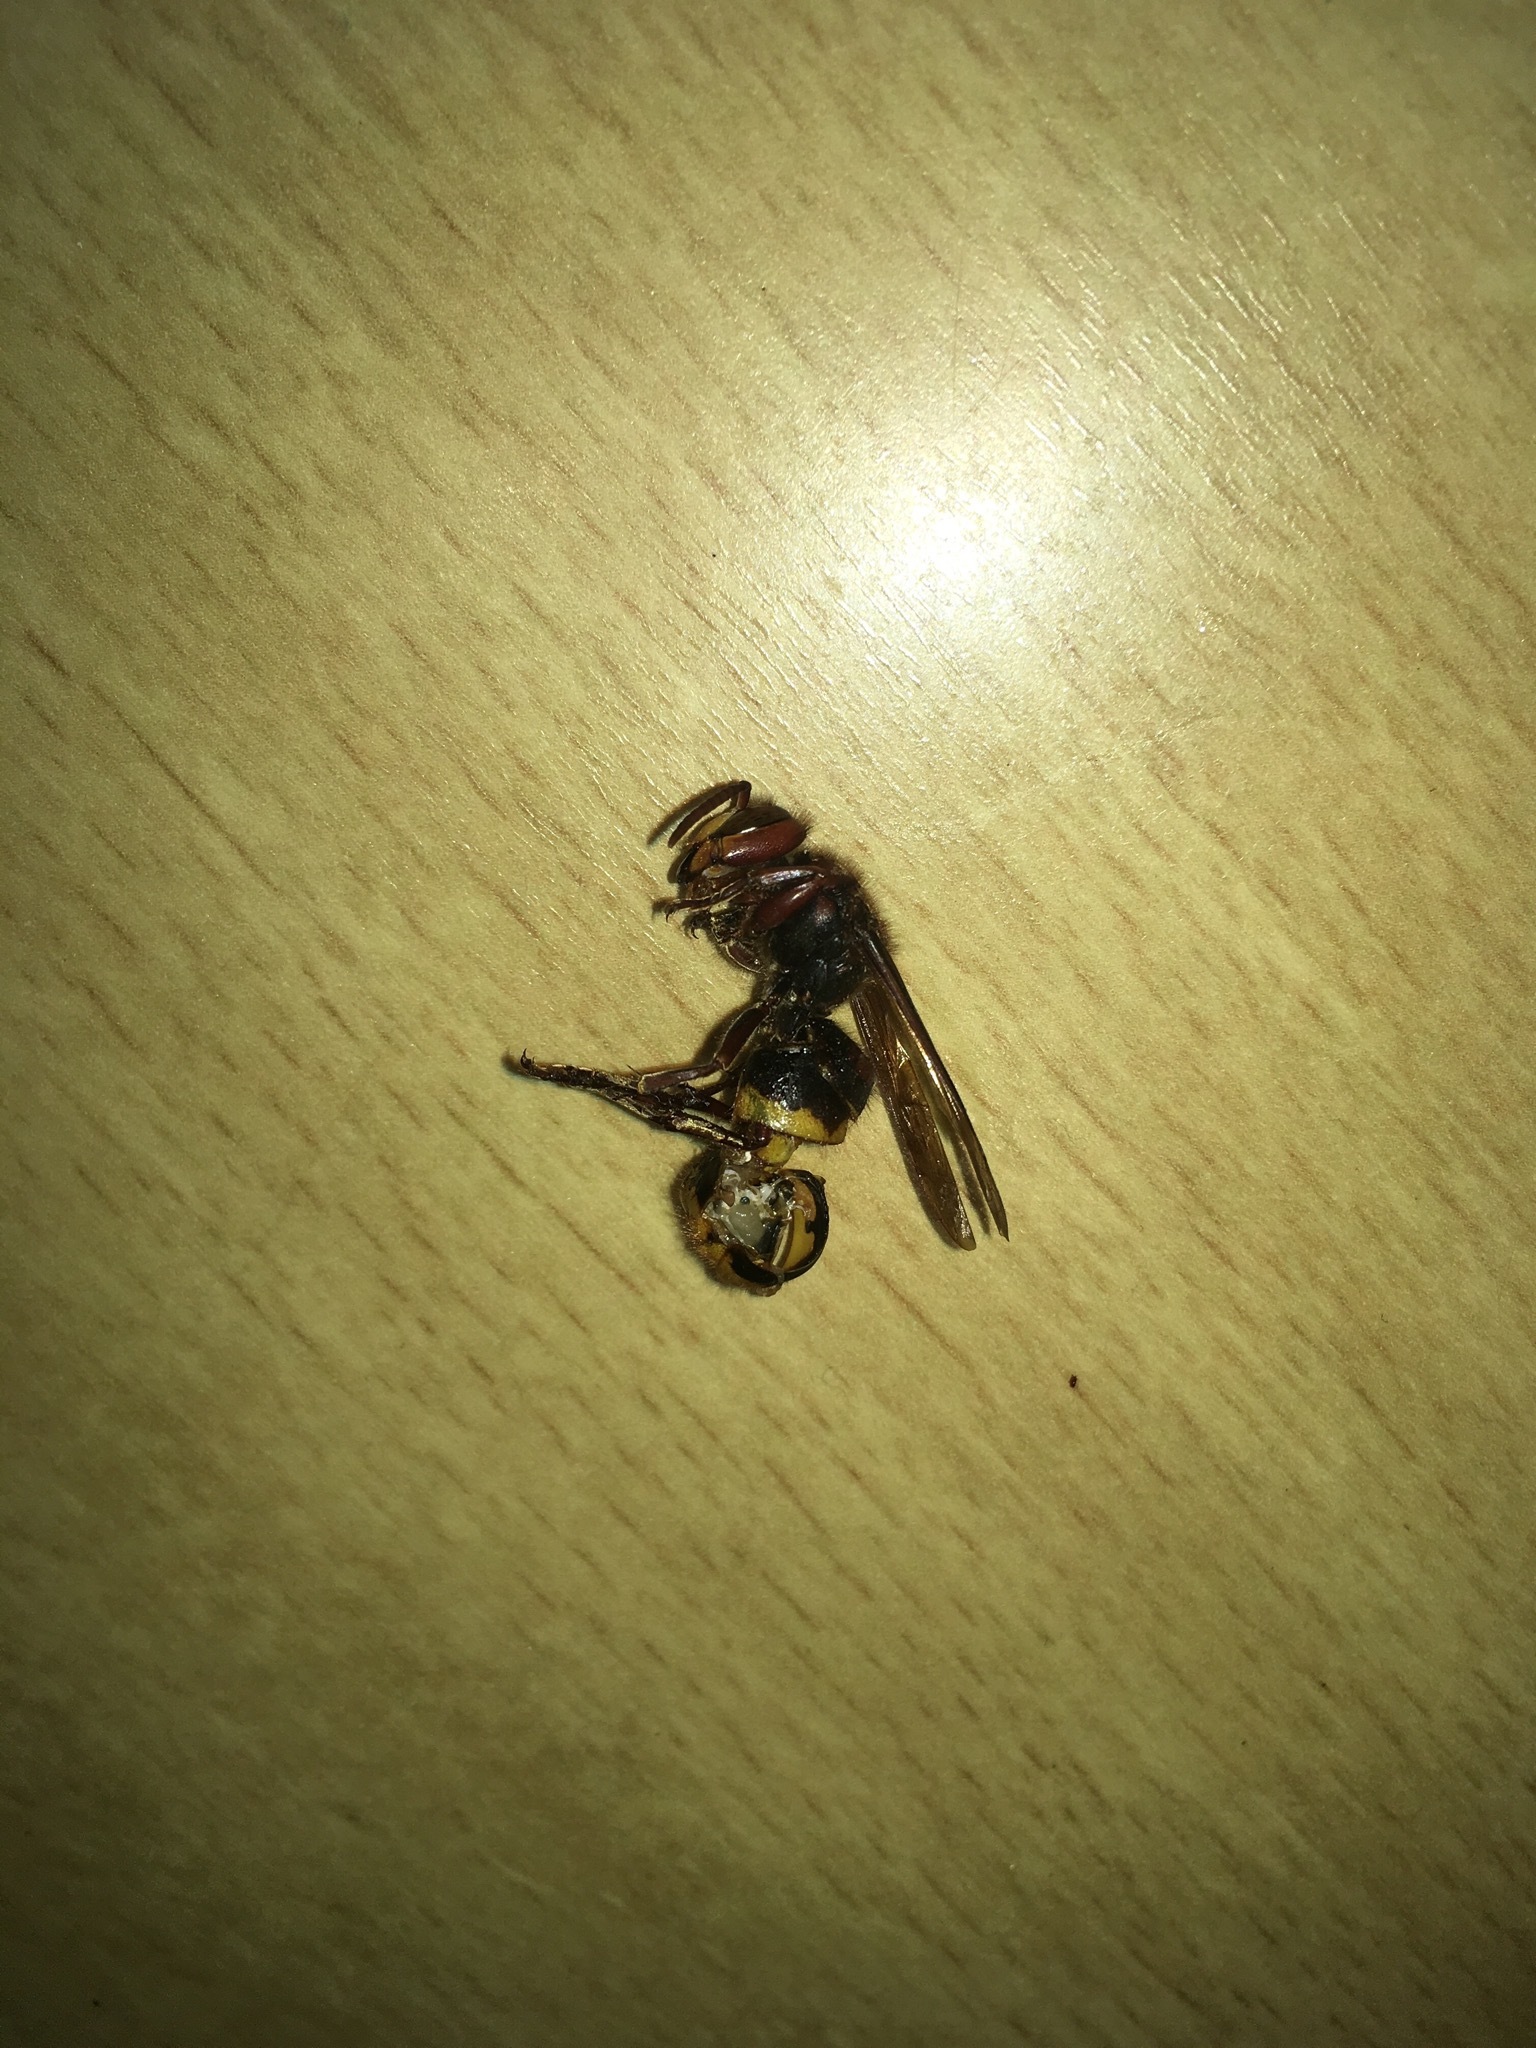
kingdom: Animalia
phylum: Arthropoda
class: Insecta
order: Hymenoptera
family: Vespidae
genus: Vespa
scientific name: Vespa crabro
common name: Hornet
